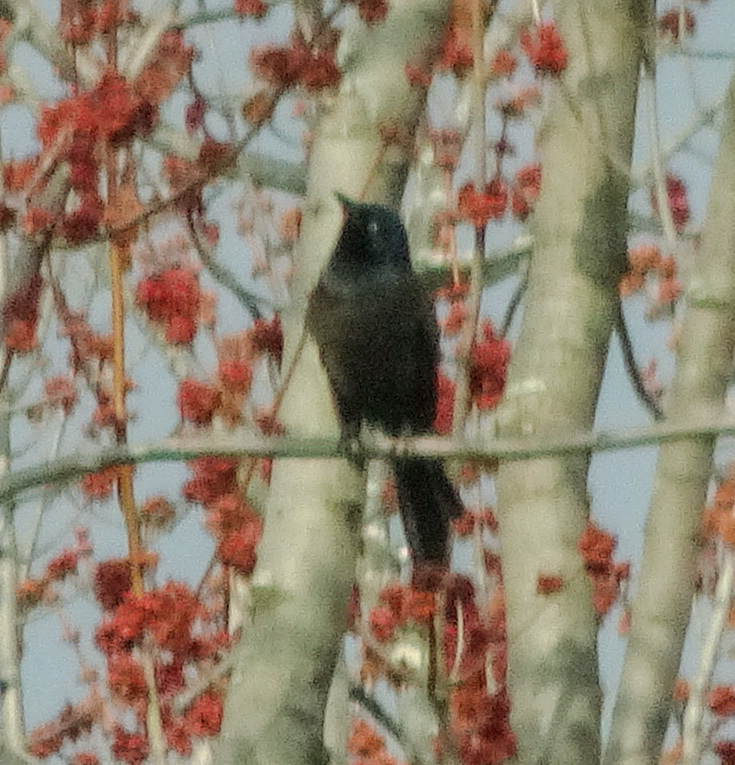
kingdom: Animalia
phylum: Chordata
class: Aves
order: Passeriformes
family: Icteridae
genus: Quiscalus
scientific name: Quiscalus quiscula
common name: Common grackle
